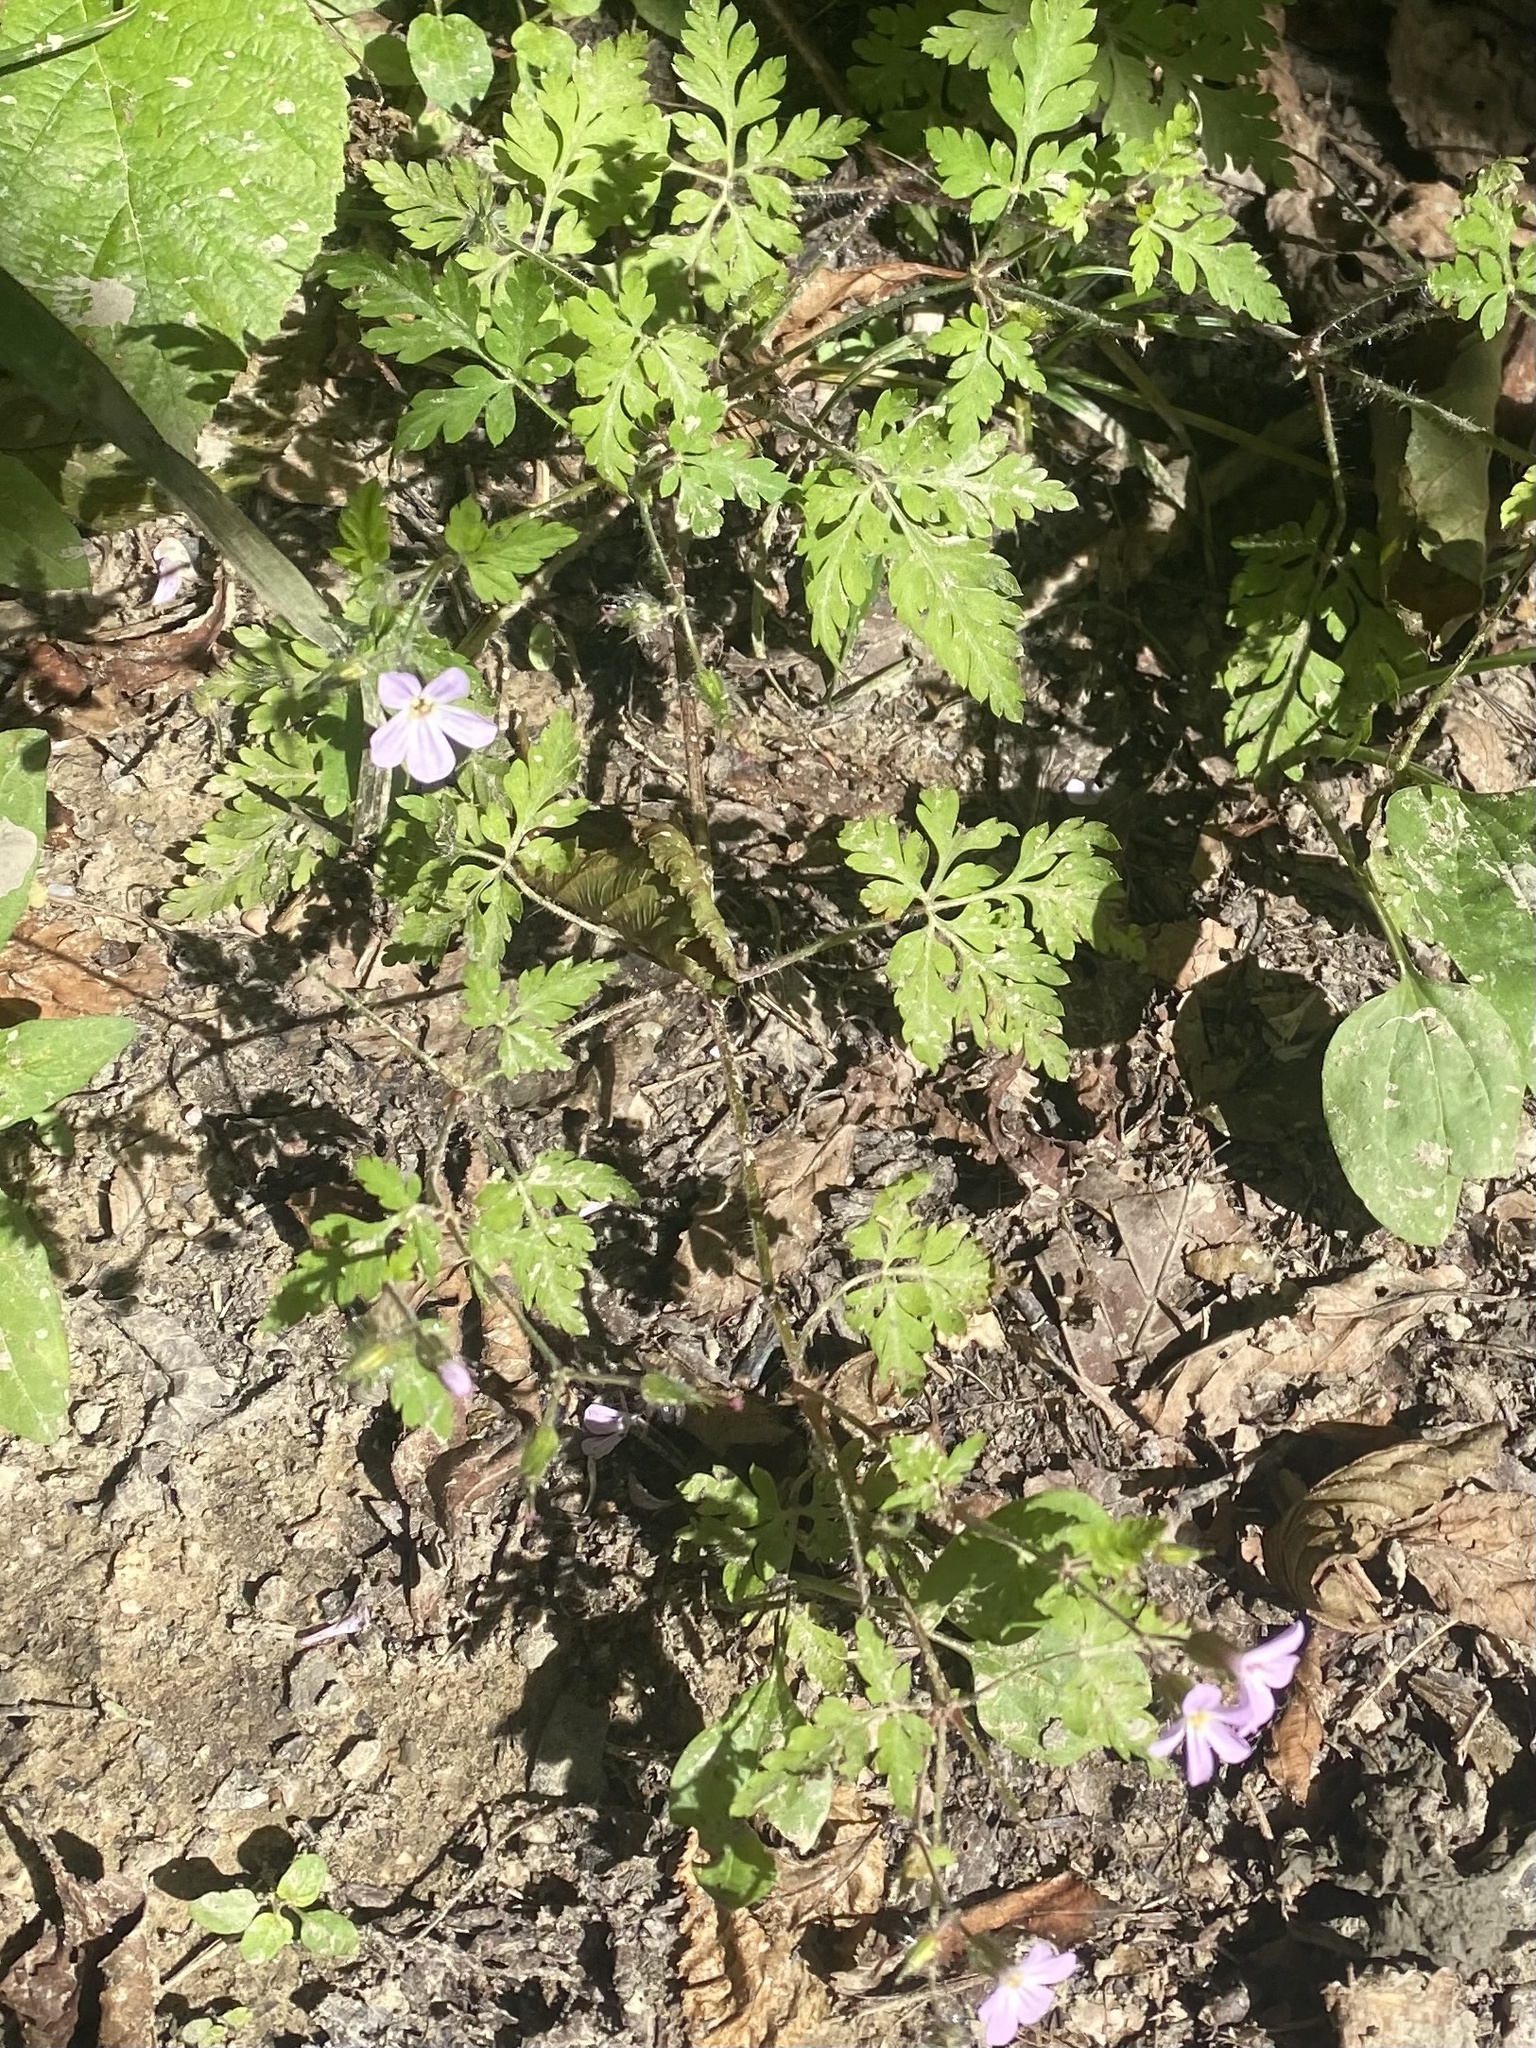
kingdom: Plantae
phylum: Tracheophyta
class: Magnoliopsida
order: Geraniales
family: Geraniaceae
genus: Geranium
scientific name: Geranium robertianum
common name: Herb-robert
